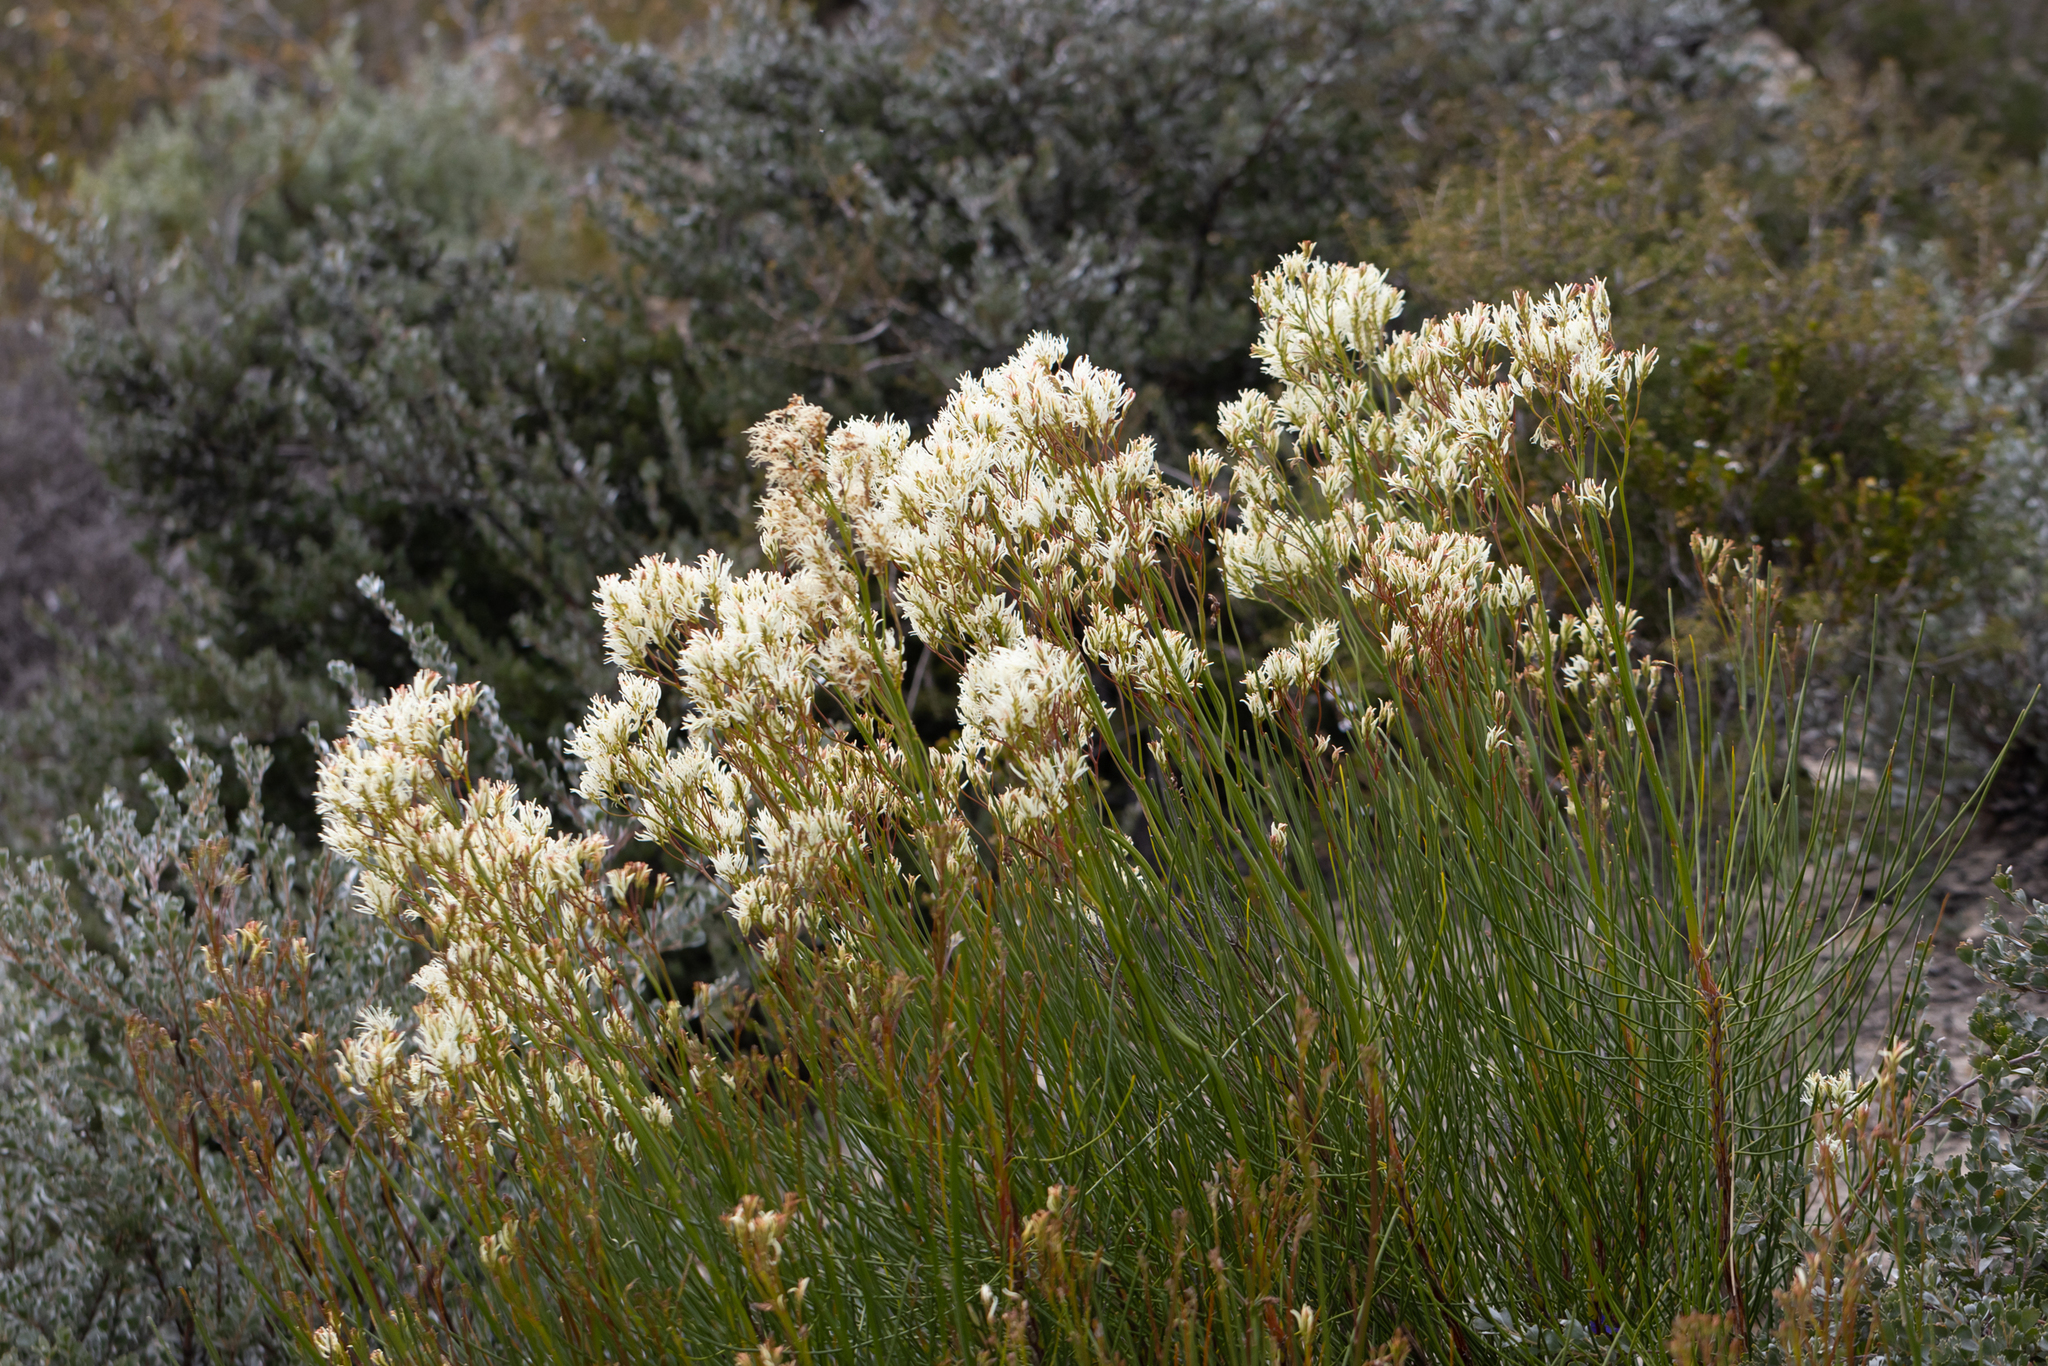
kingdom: Plantae
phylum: Tracheophyta
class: Magnoliopsida
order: Proteales
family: Proteaceae
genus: Conospermum
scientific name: Conospermum teretifolium
